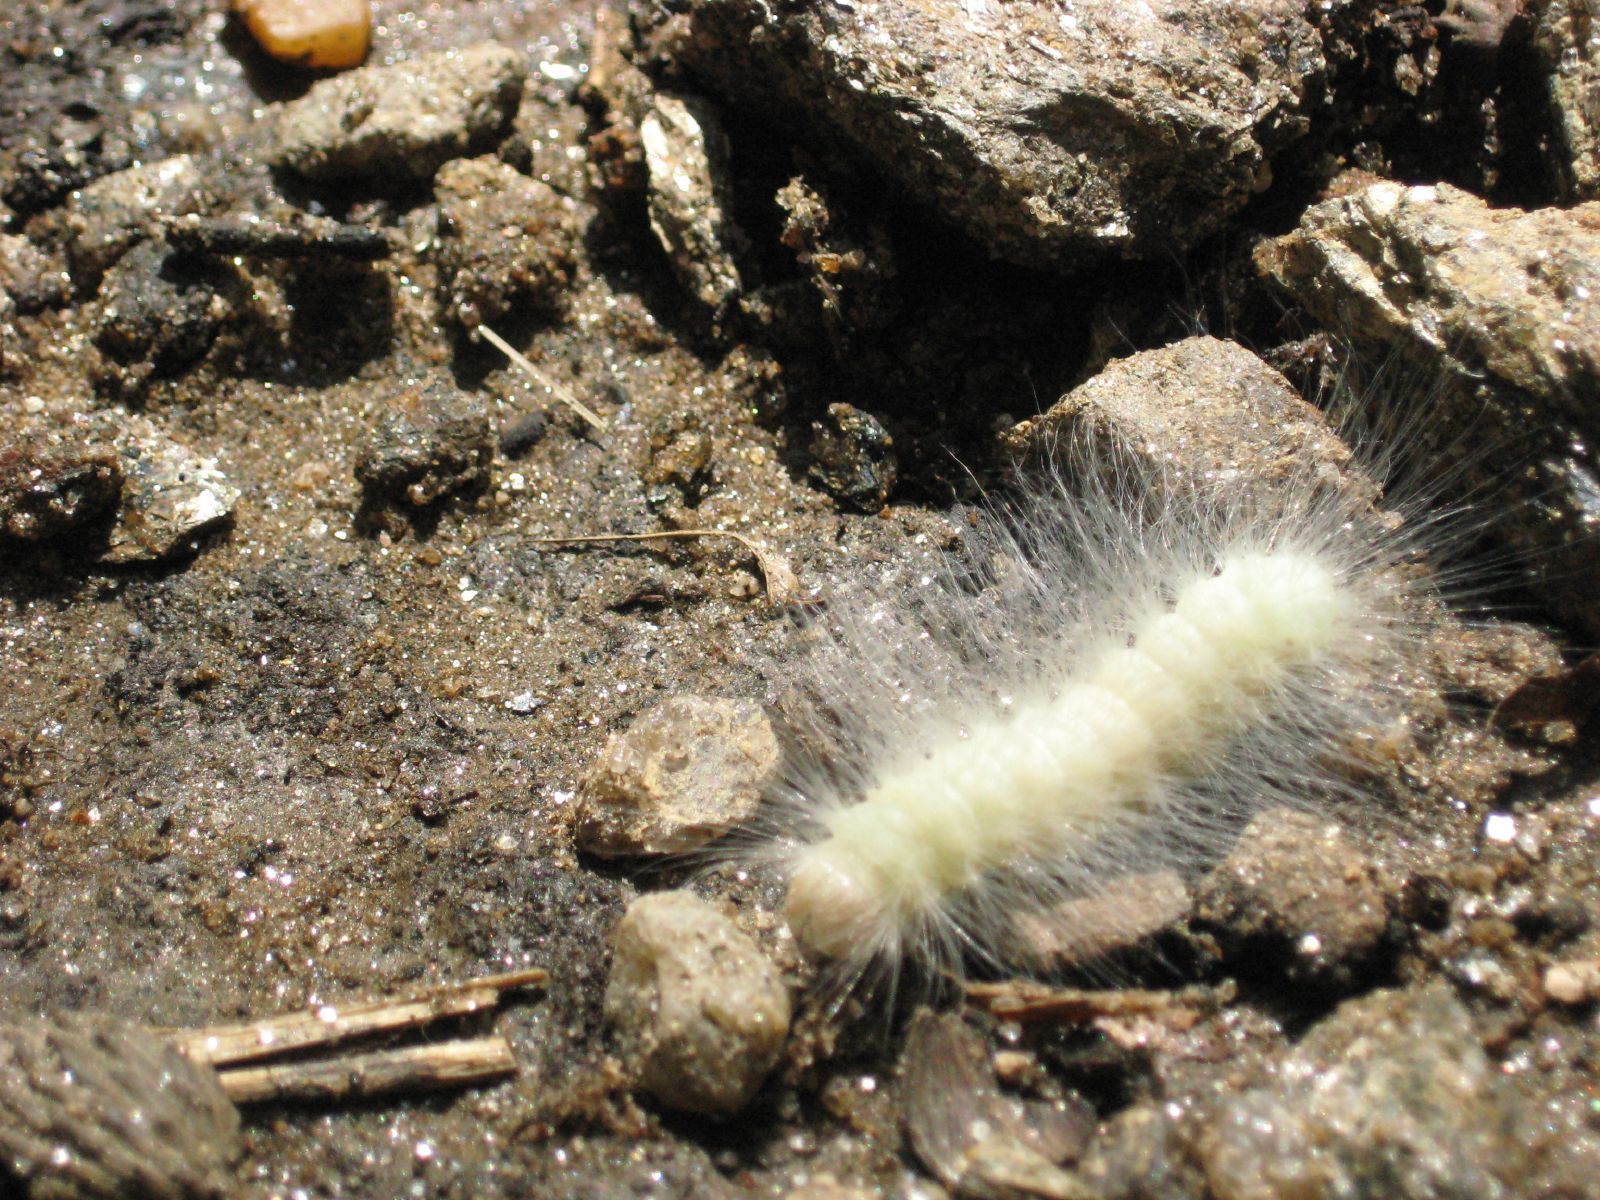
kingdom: Animalia
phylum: Arthropoda
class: Insecta
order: Lepidoptera
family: Noctuidae
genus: Charadra
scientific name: Charadra deridens
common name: Marbled tuffet
